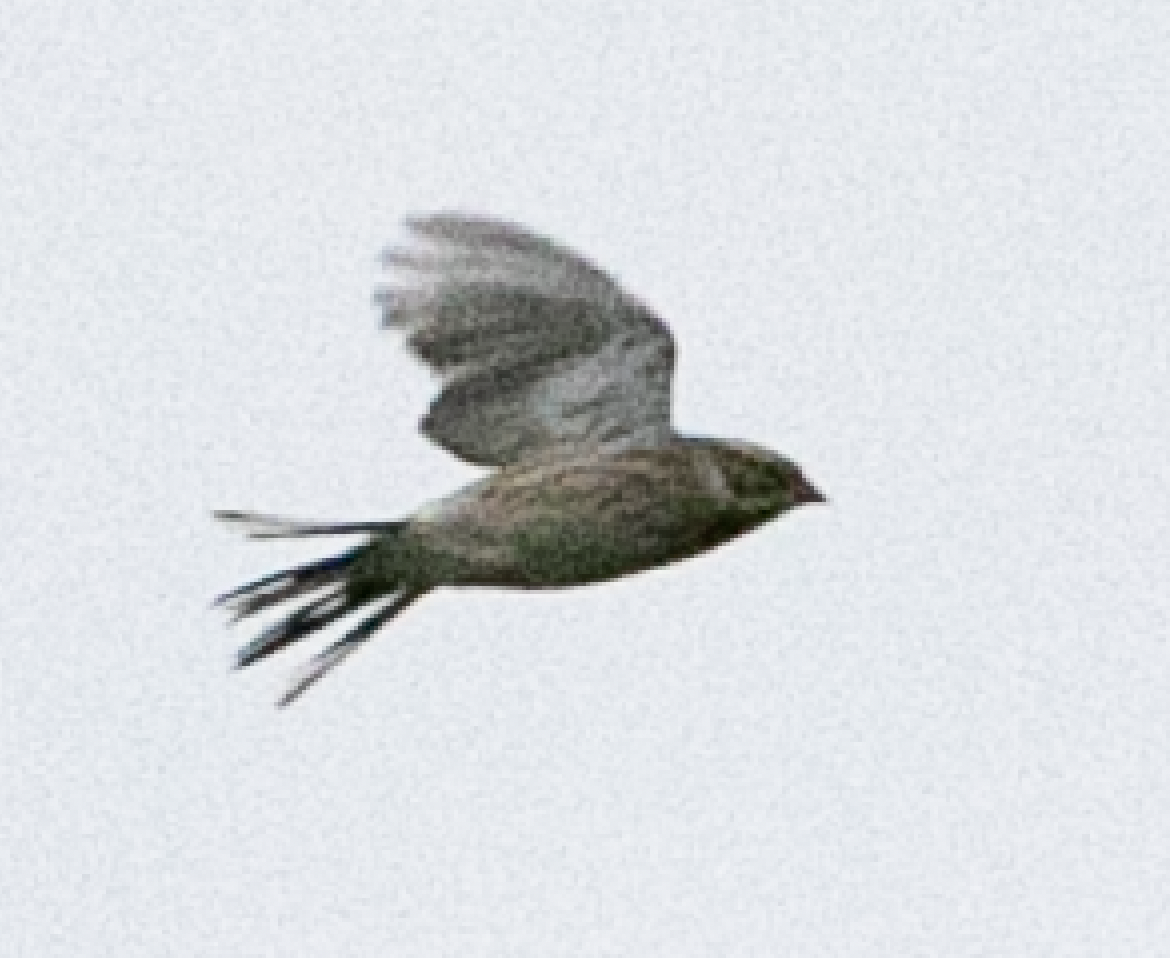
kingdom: Animalia
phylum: Chordata
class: Aves
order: Passeriformes
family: Emberizidae
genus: Emberiza
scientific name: Emberiza schoeniclus
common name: Reed bunting
